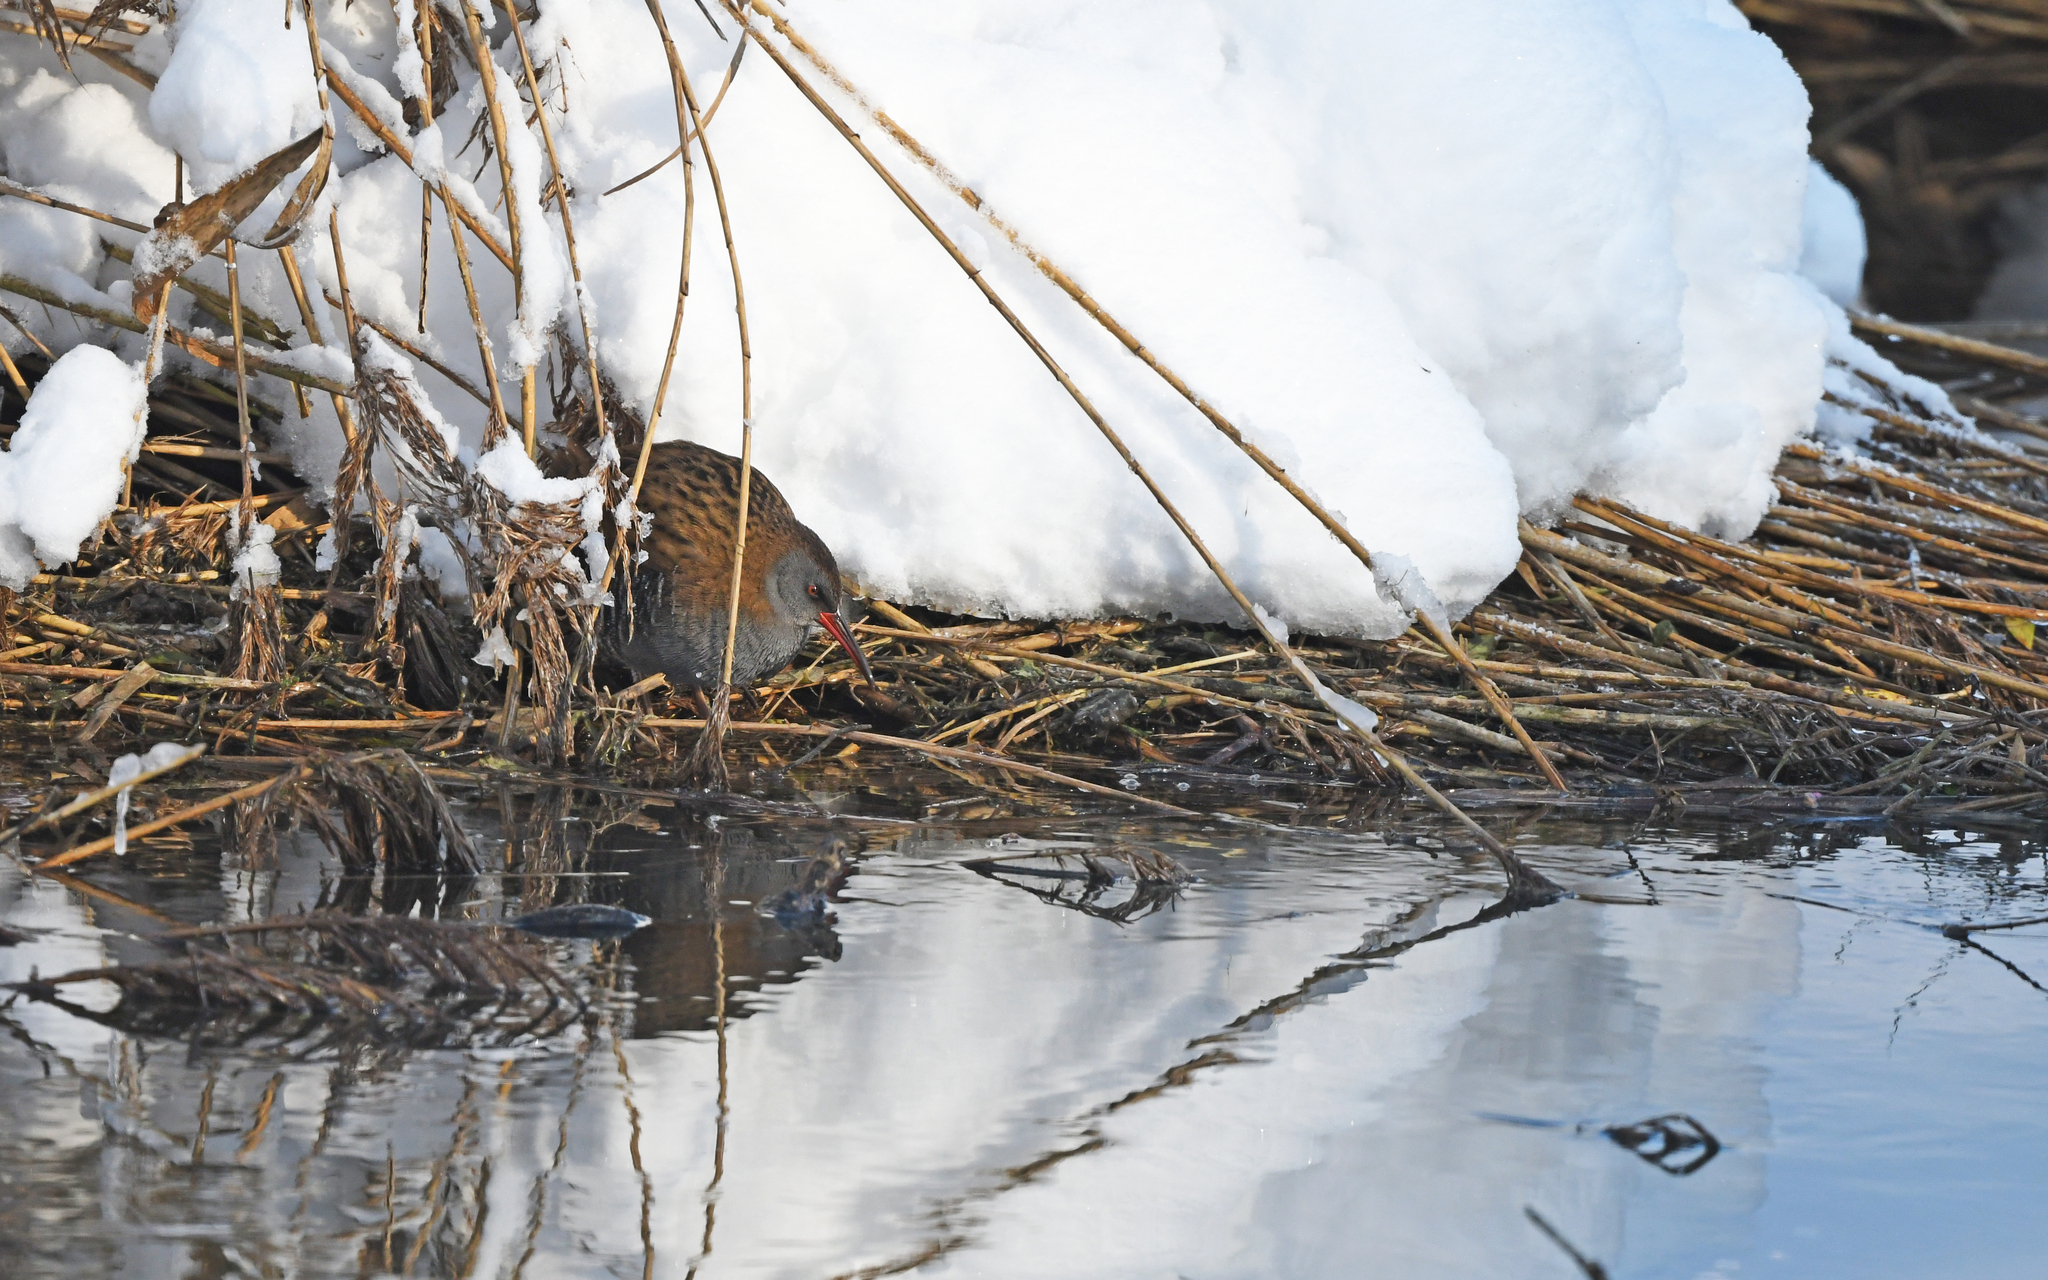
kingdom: Animalia
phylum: Chordata
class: Aves
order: Gruiformes
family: Rallidae
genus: Rallus
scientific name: Rallus aquaticus
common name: Water rail
